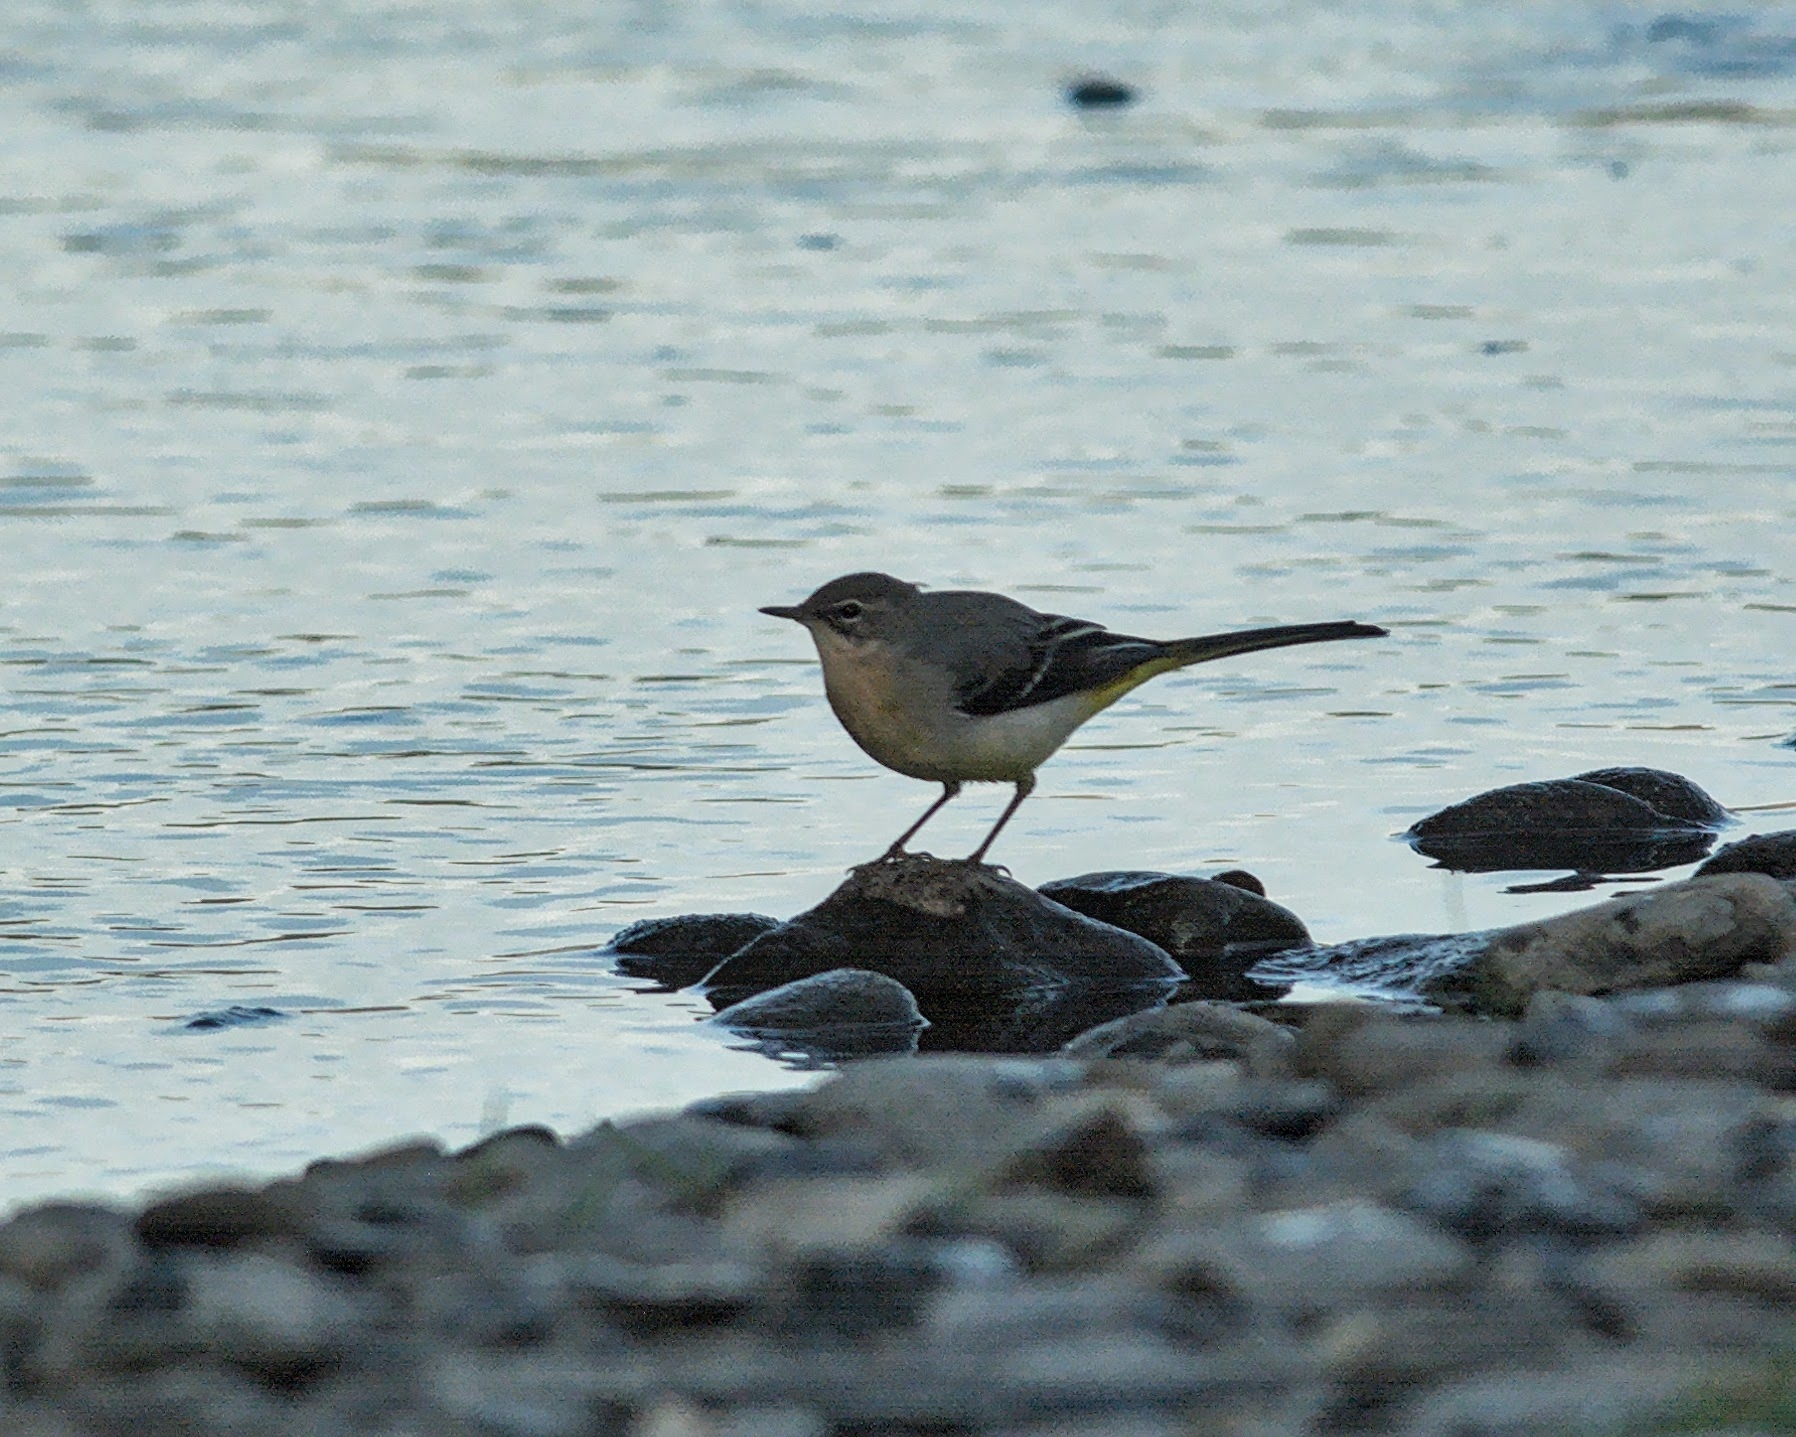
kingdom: Animalia
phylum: Chordata
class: Aves
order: Passeriformes
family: Motacillidae
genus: Motacilla
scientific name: Motacilla cinerea
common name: Grey wagtail
